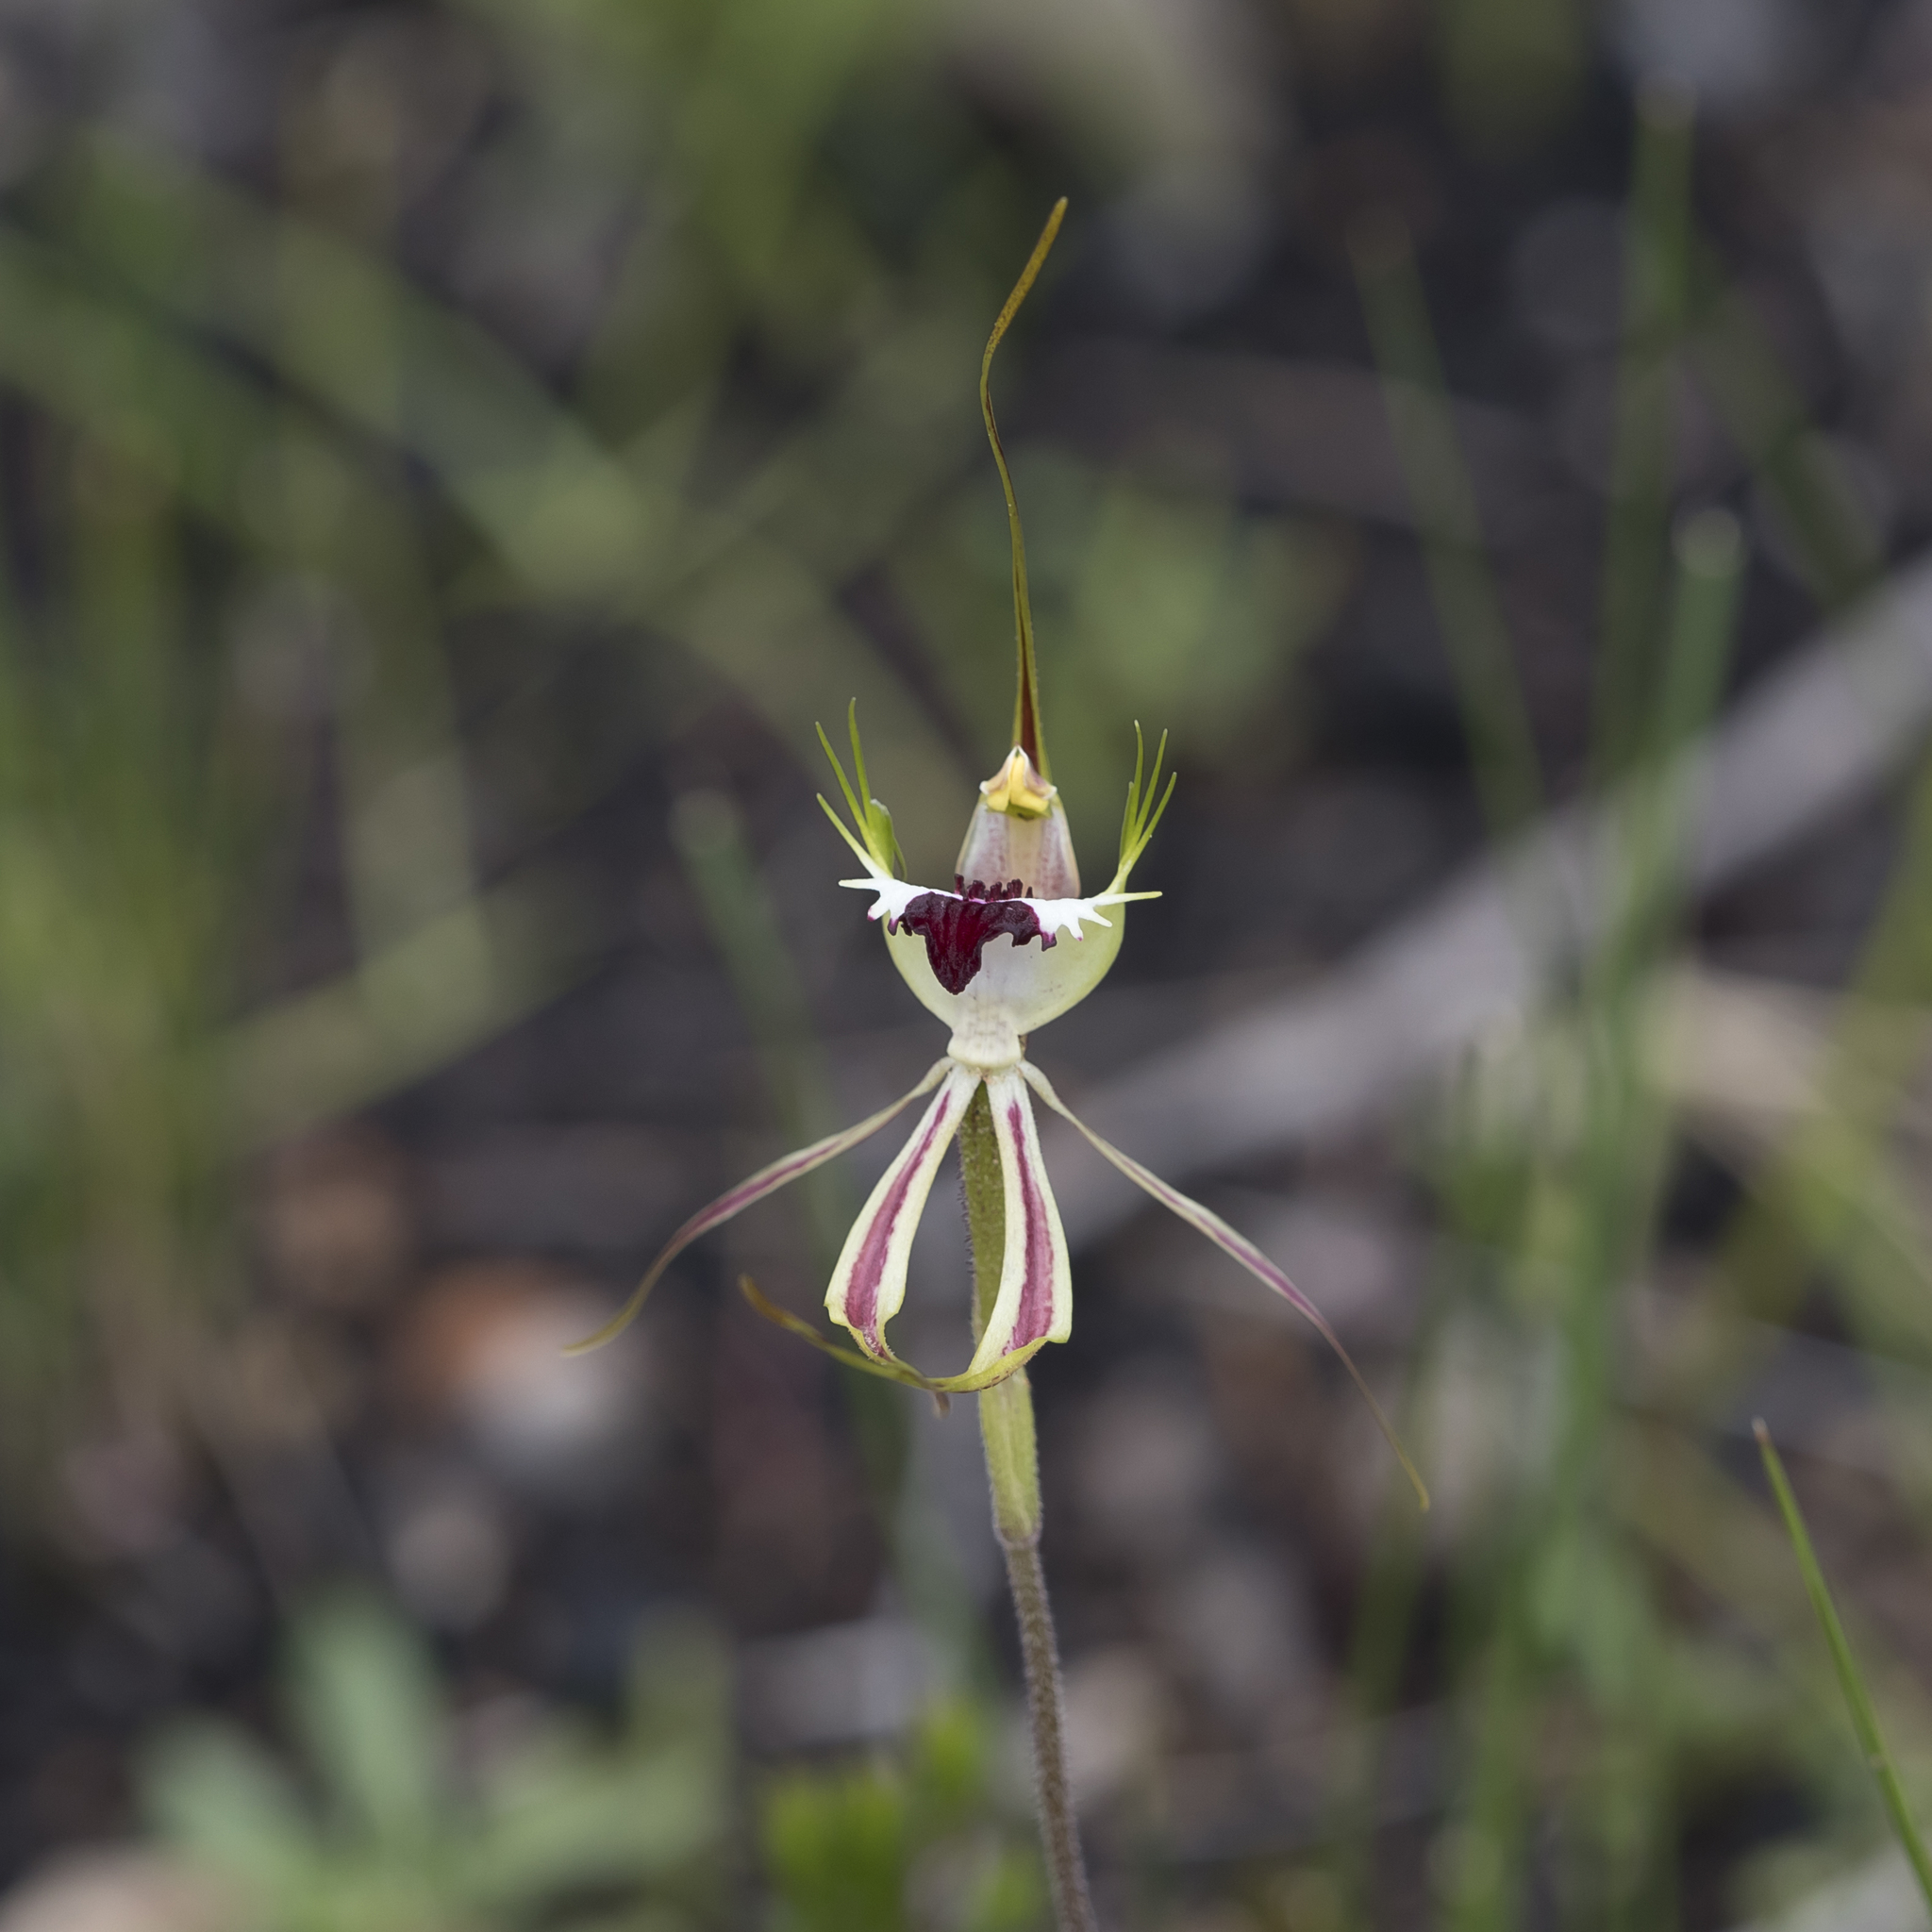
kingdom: Plantae
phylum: Tracheophyta
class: Liliopsida
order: Asparagales
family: Orchidaceae
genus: Caladenia
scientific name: Caladenia tentaculata
